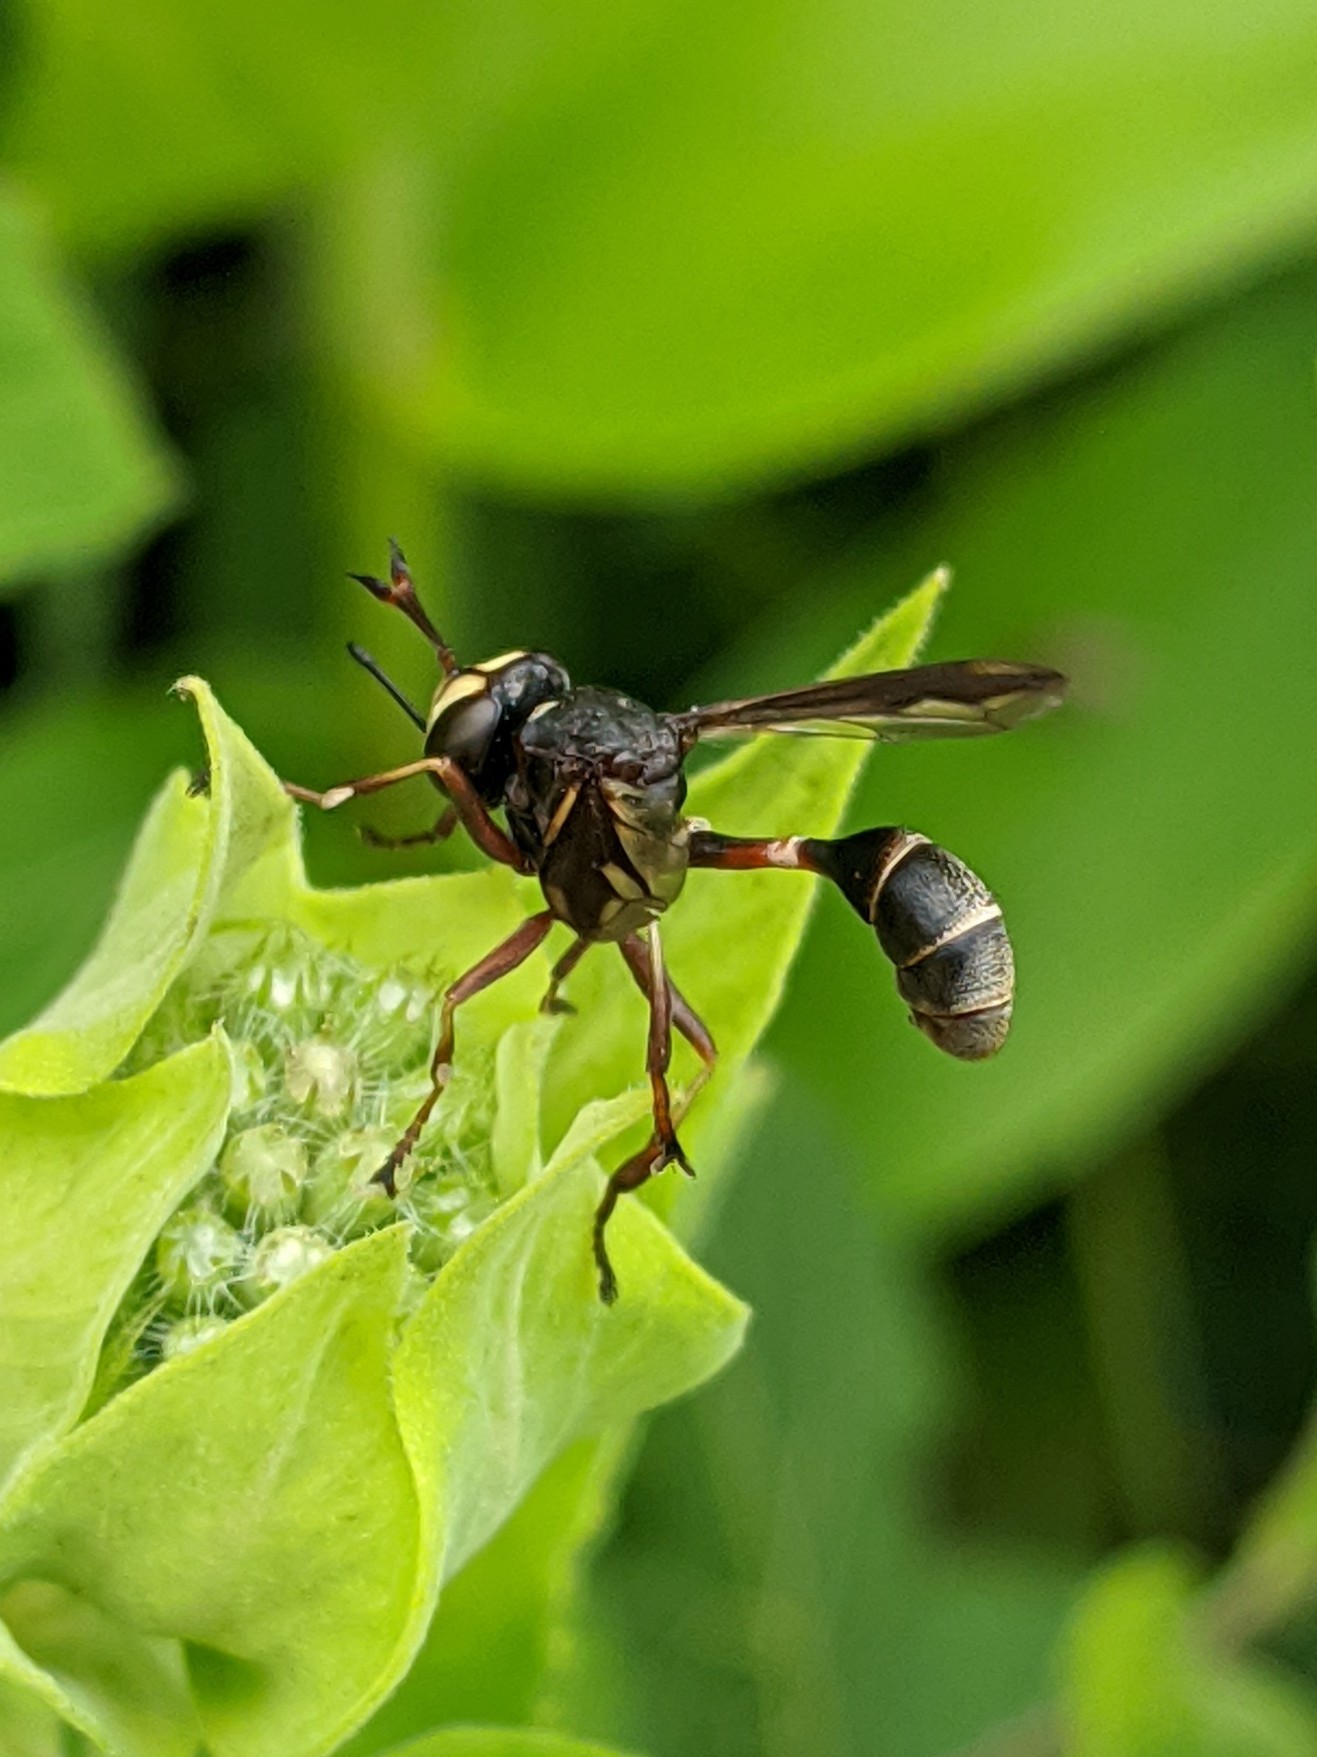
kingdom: Animalia
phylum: Arthropoda
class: Insecta
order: Diptera
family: Conopidae
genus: Physocephala
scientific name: Physocephala furcillata
